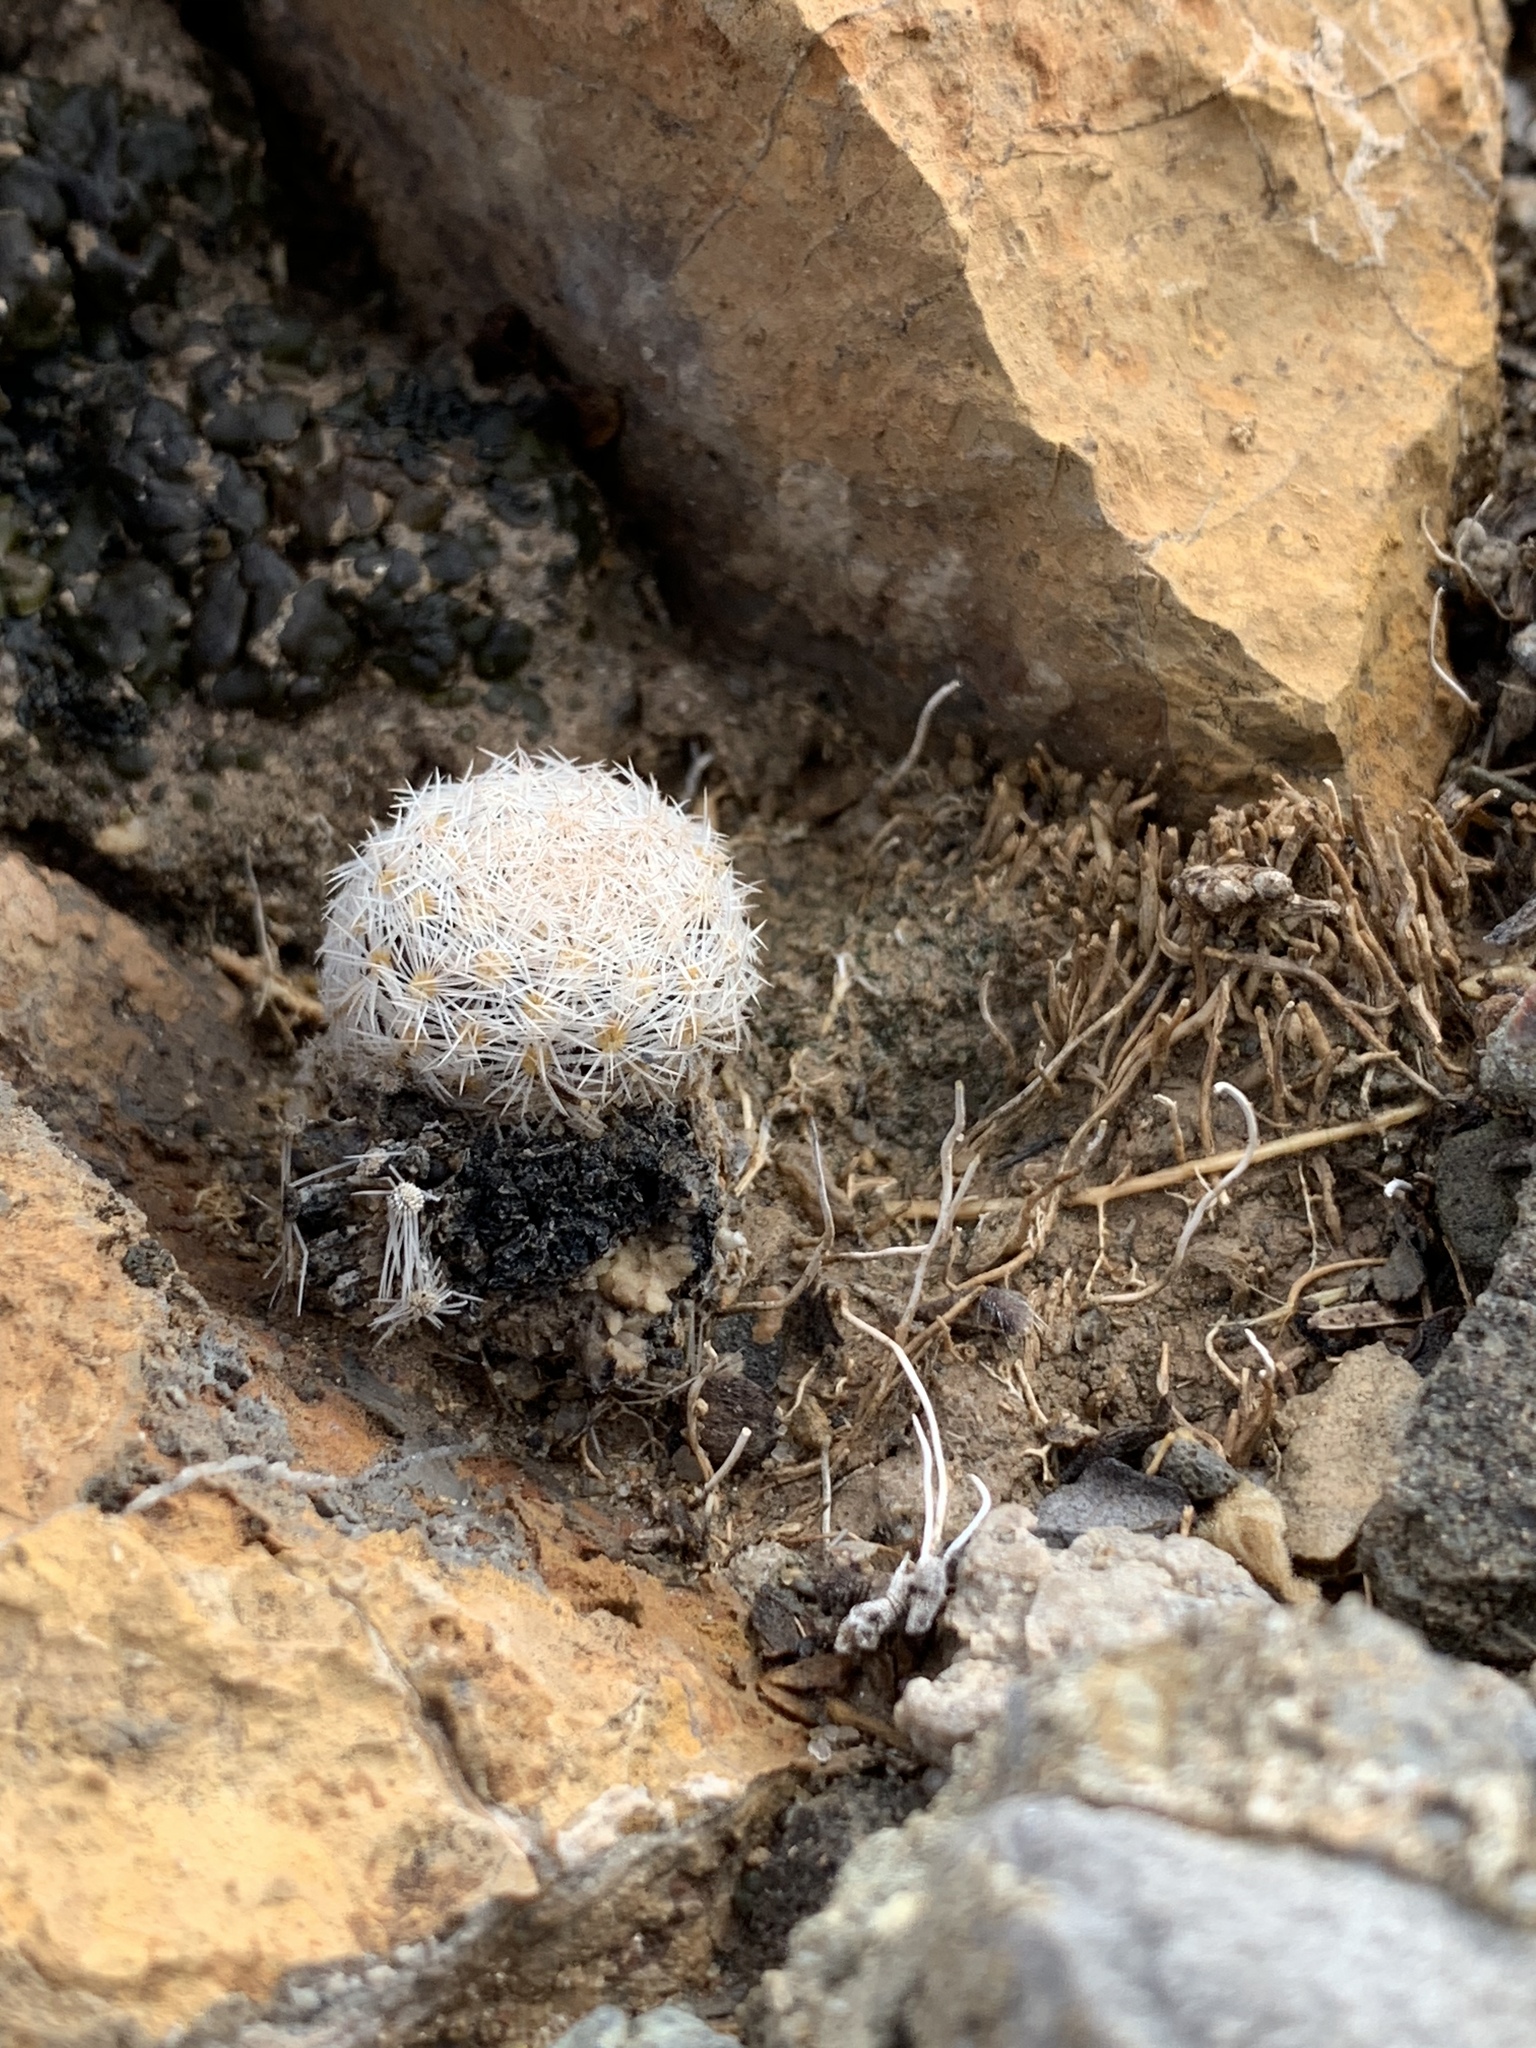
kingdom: Plantae
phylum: Tracheophyta
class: Magnoliopsida
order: Caryophyllales
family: Cactaceae
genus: Mammillaria
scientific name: Mammillaria lasiacantha
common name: Lace-spine nipple cactus
